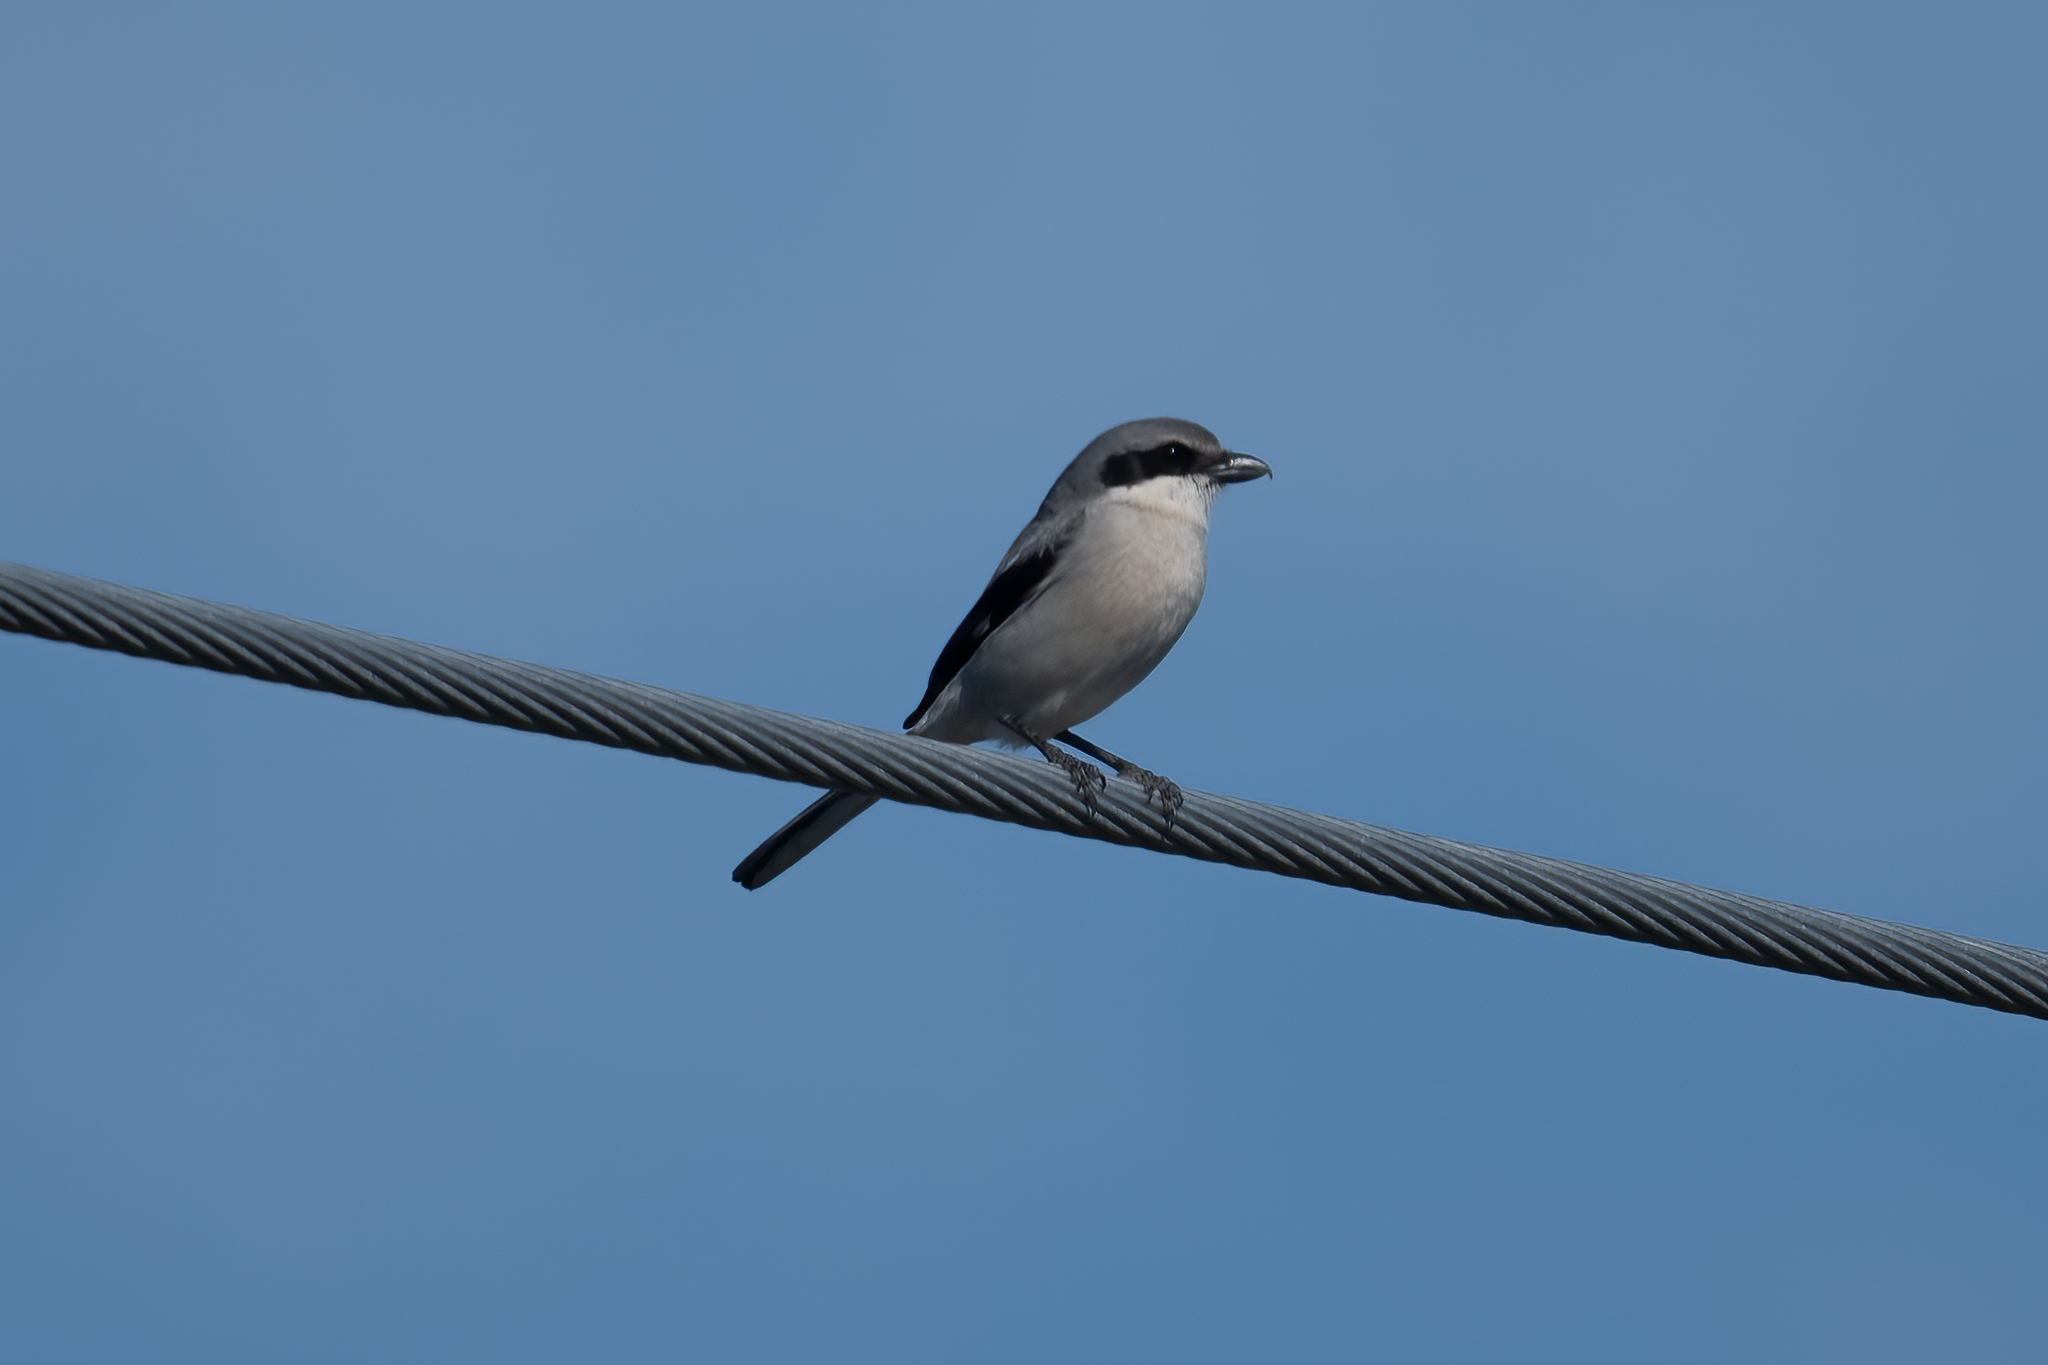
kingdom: Animalia
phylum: Chordata
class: Aves
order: Passeriformes
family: Laniidae
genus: Lanius
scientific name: Lanius ludovicianus
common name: Loggerhead shrike
